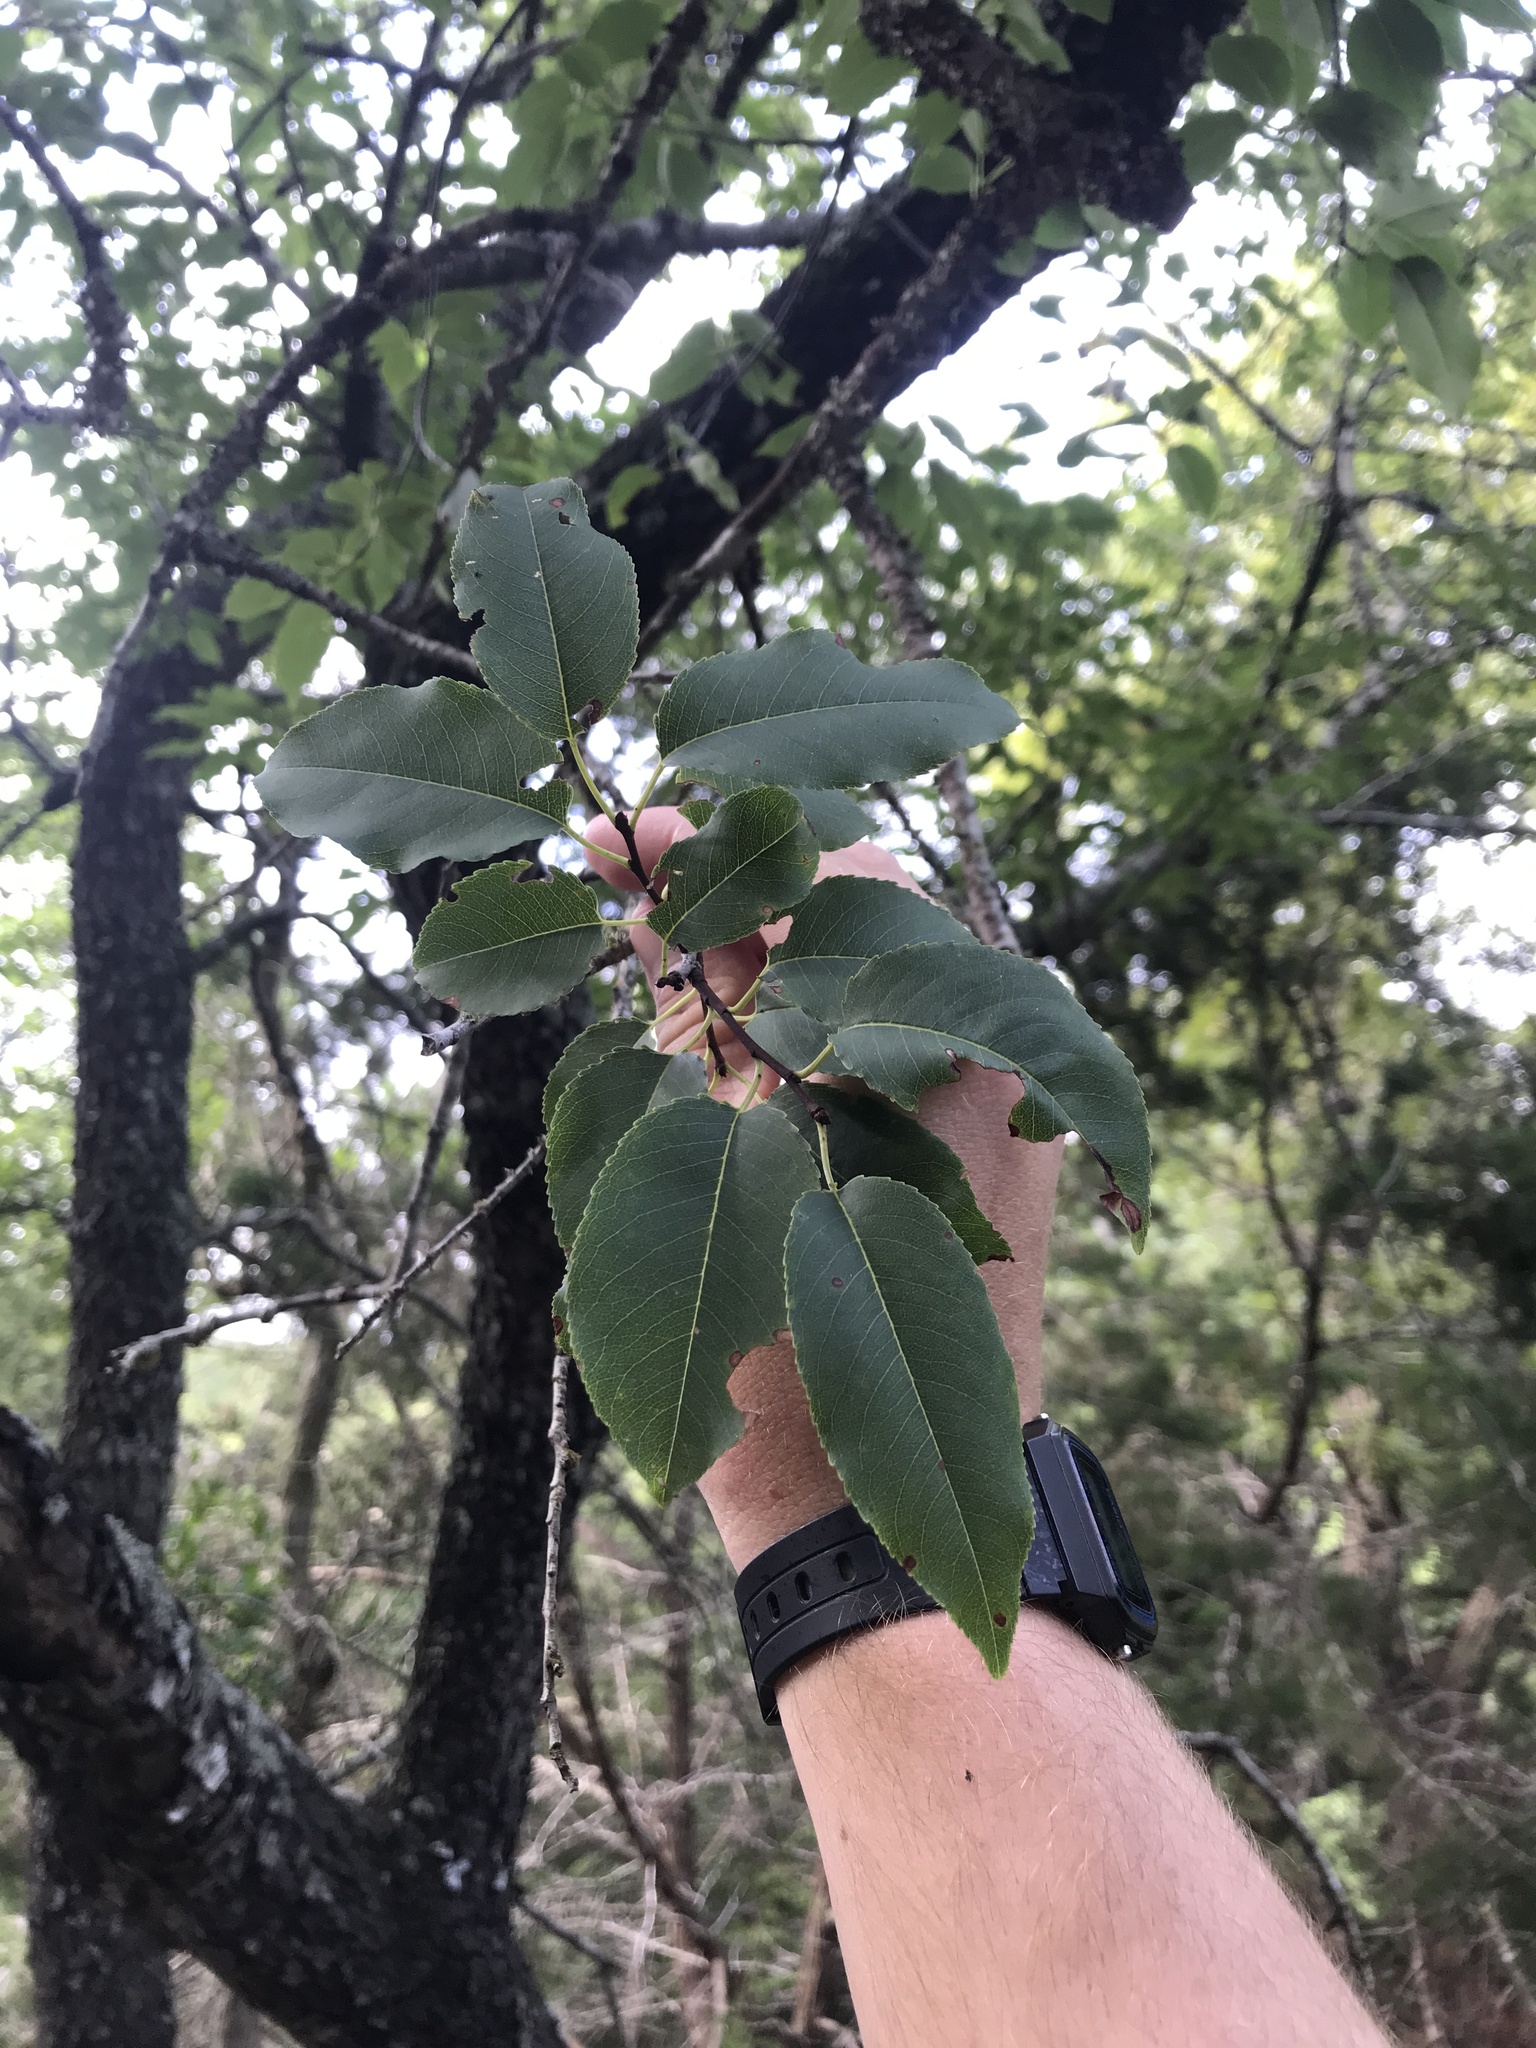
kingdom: Plantae
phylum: Tracheophyta
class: Magnoliopsida
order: Rosales
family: Rosaceae
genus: Prunus
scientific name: Prunus serotina
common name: Black cherry
